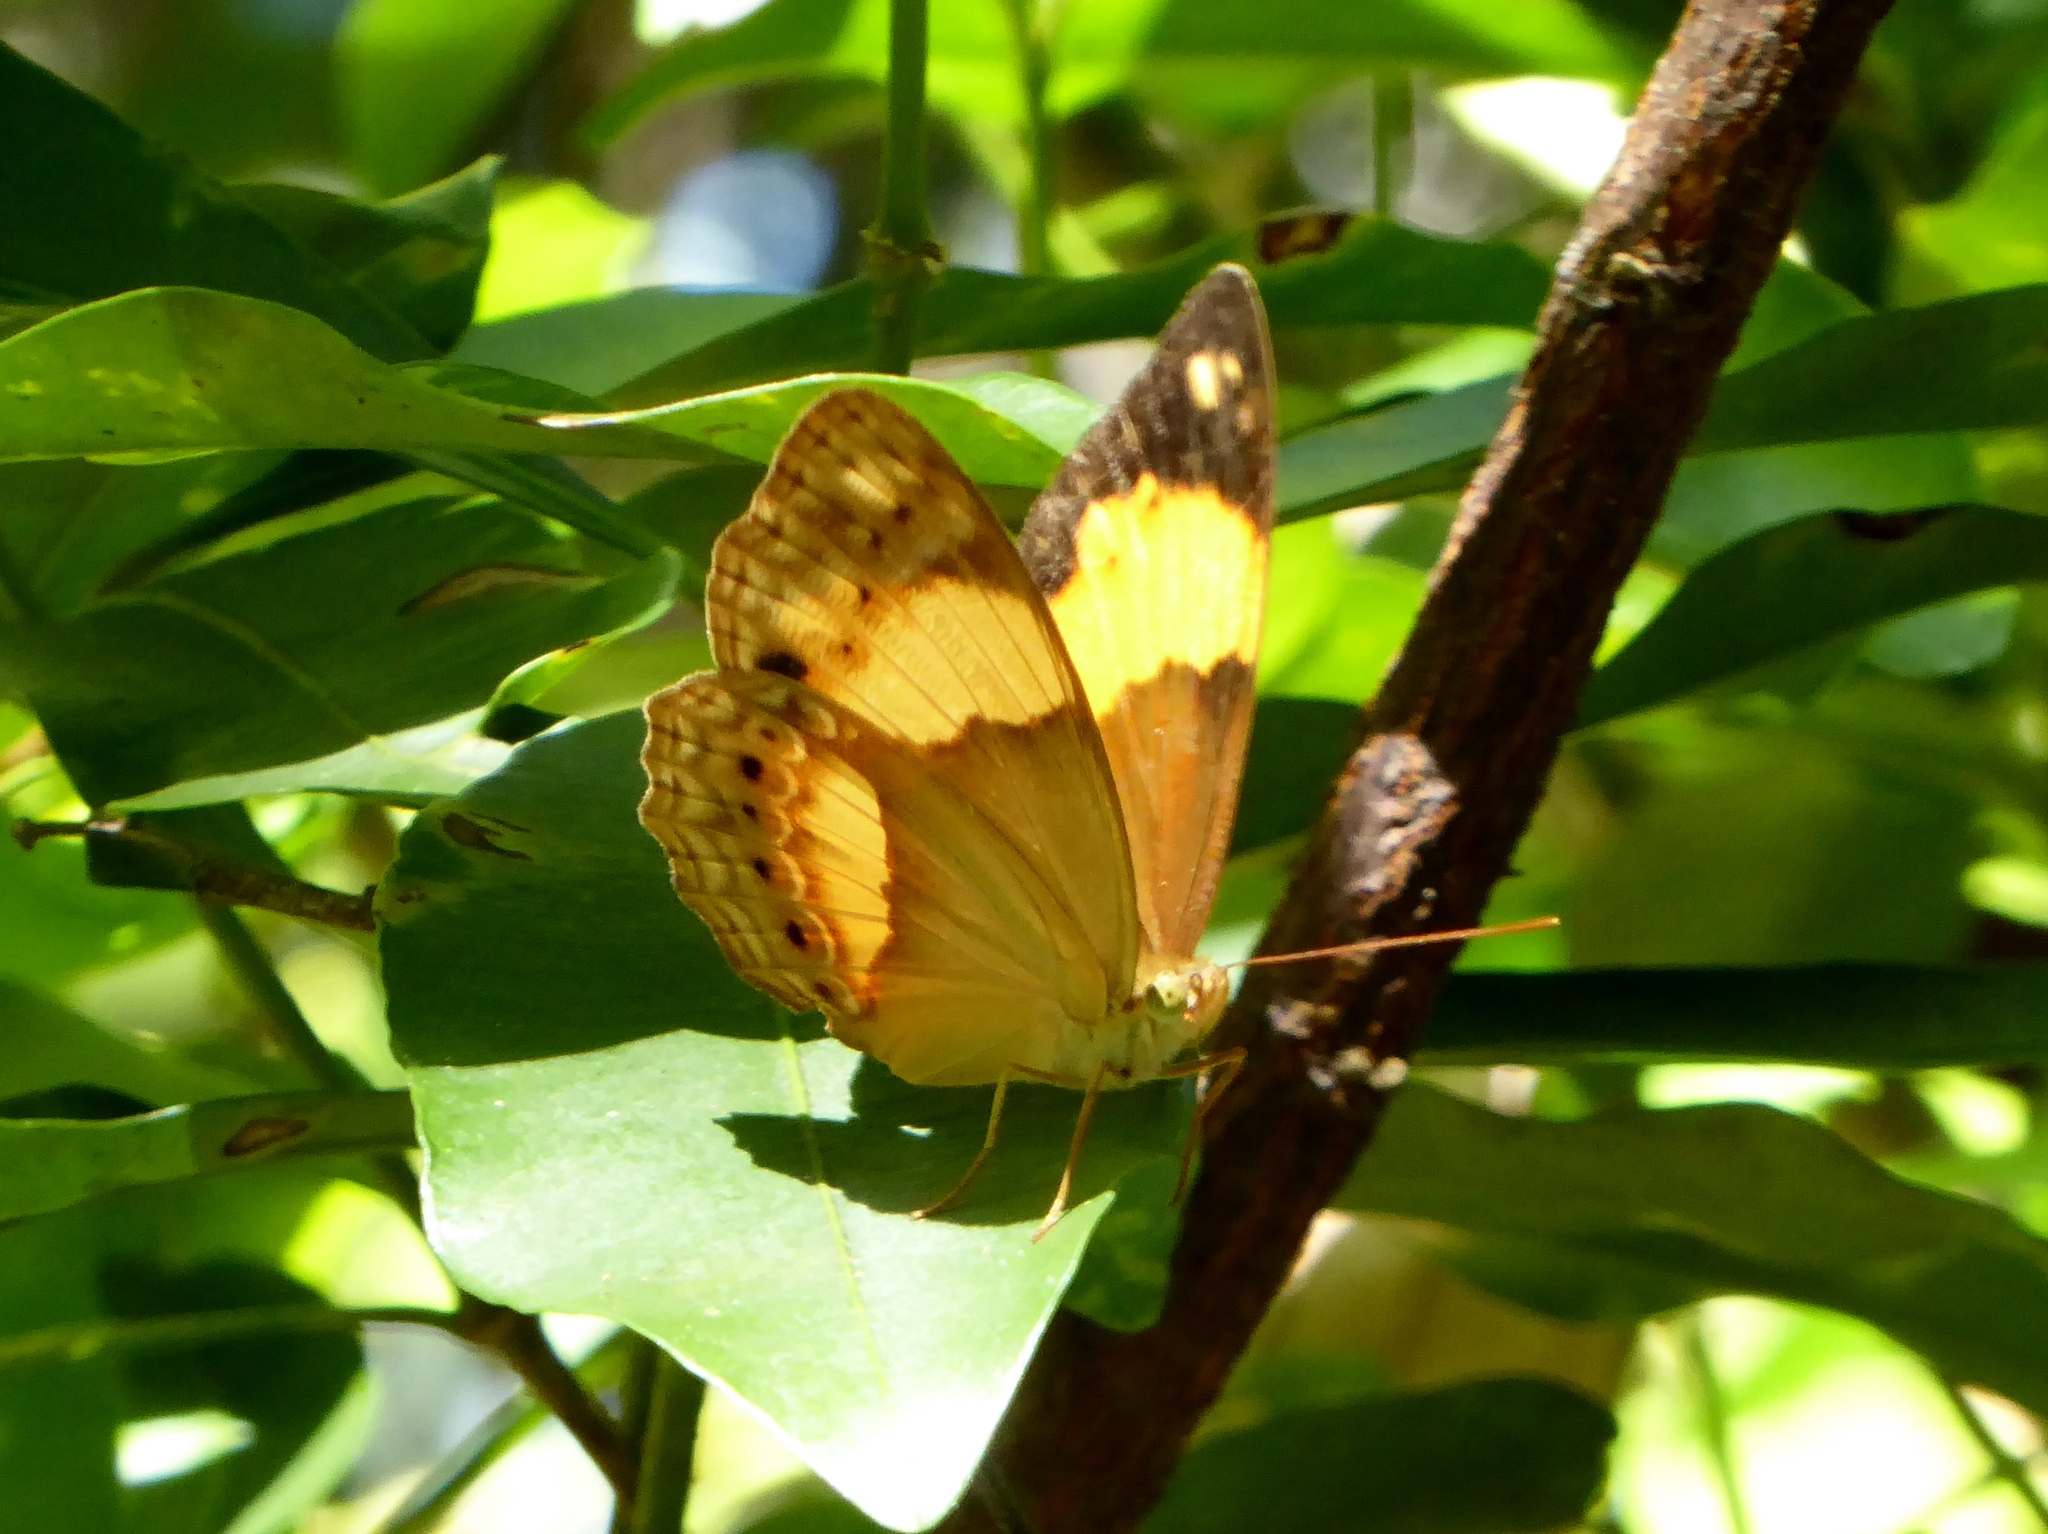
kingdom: Animalia
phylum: Arthropoda
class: Insecta
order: Lepidoptera
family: Nymphalidae
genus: Cupha
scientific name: Cupha prosope
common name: Bordered rustic
